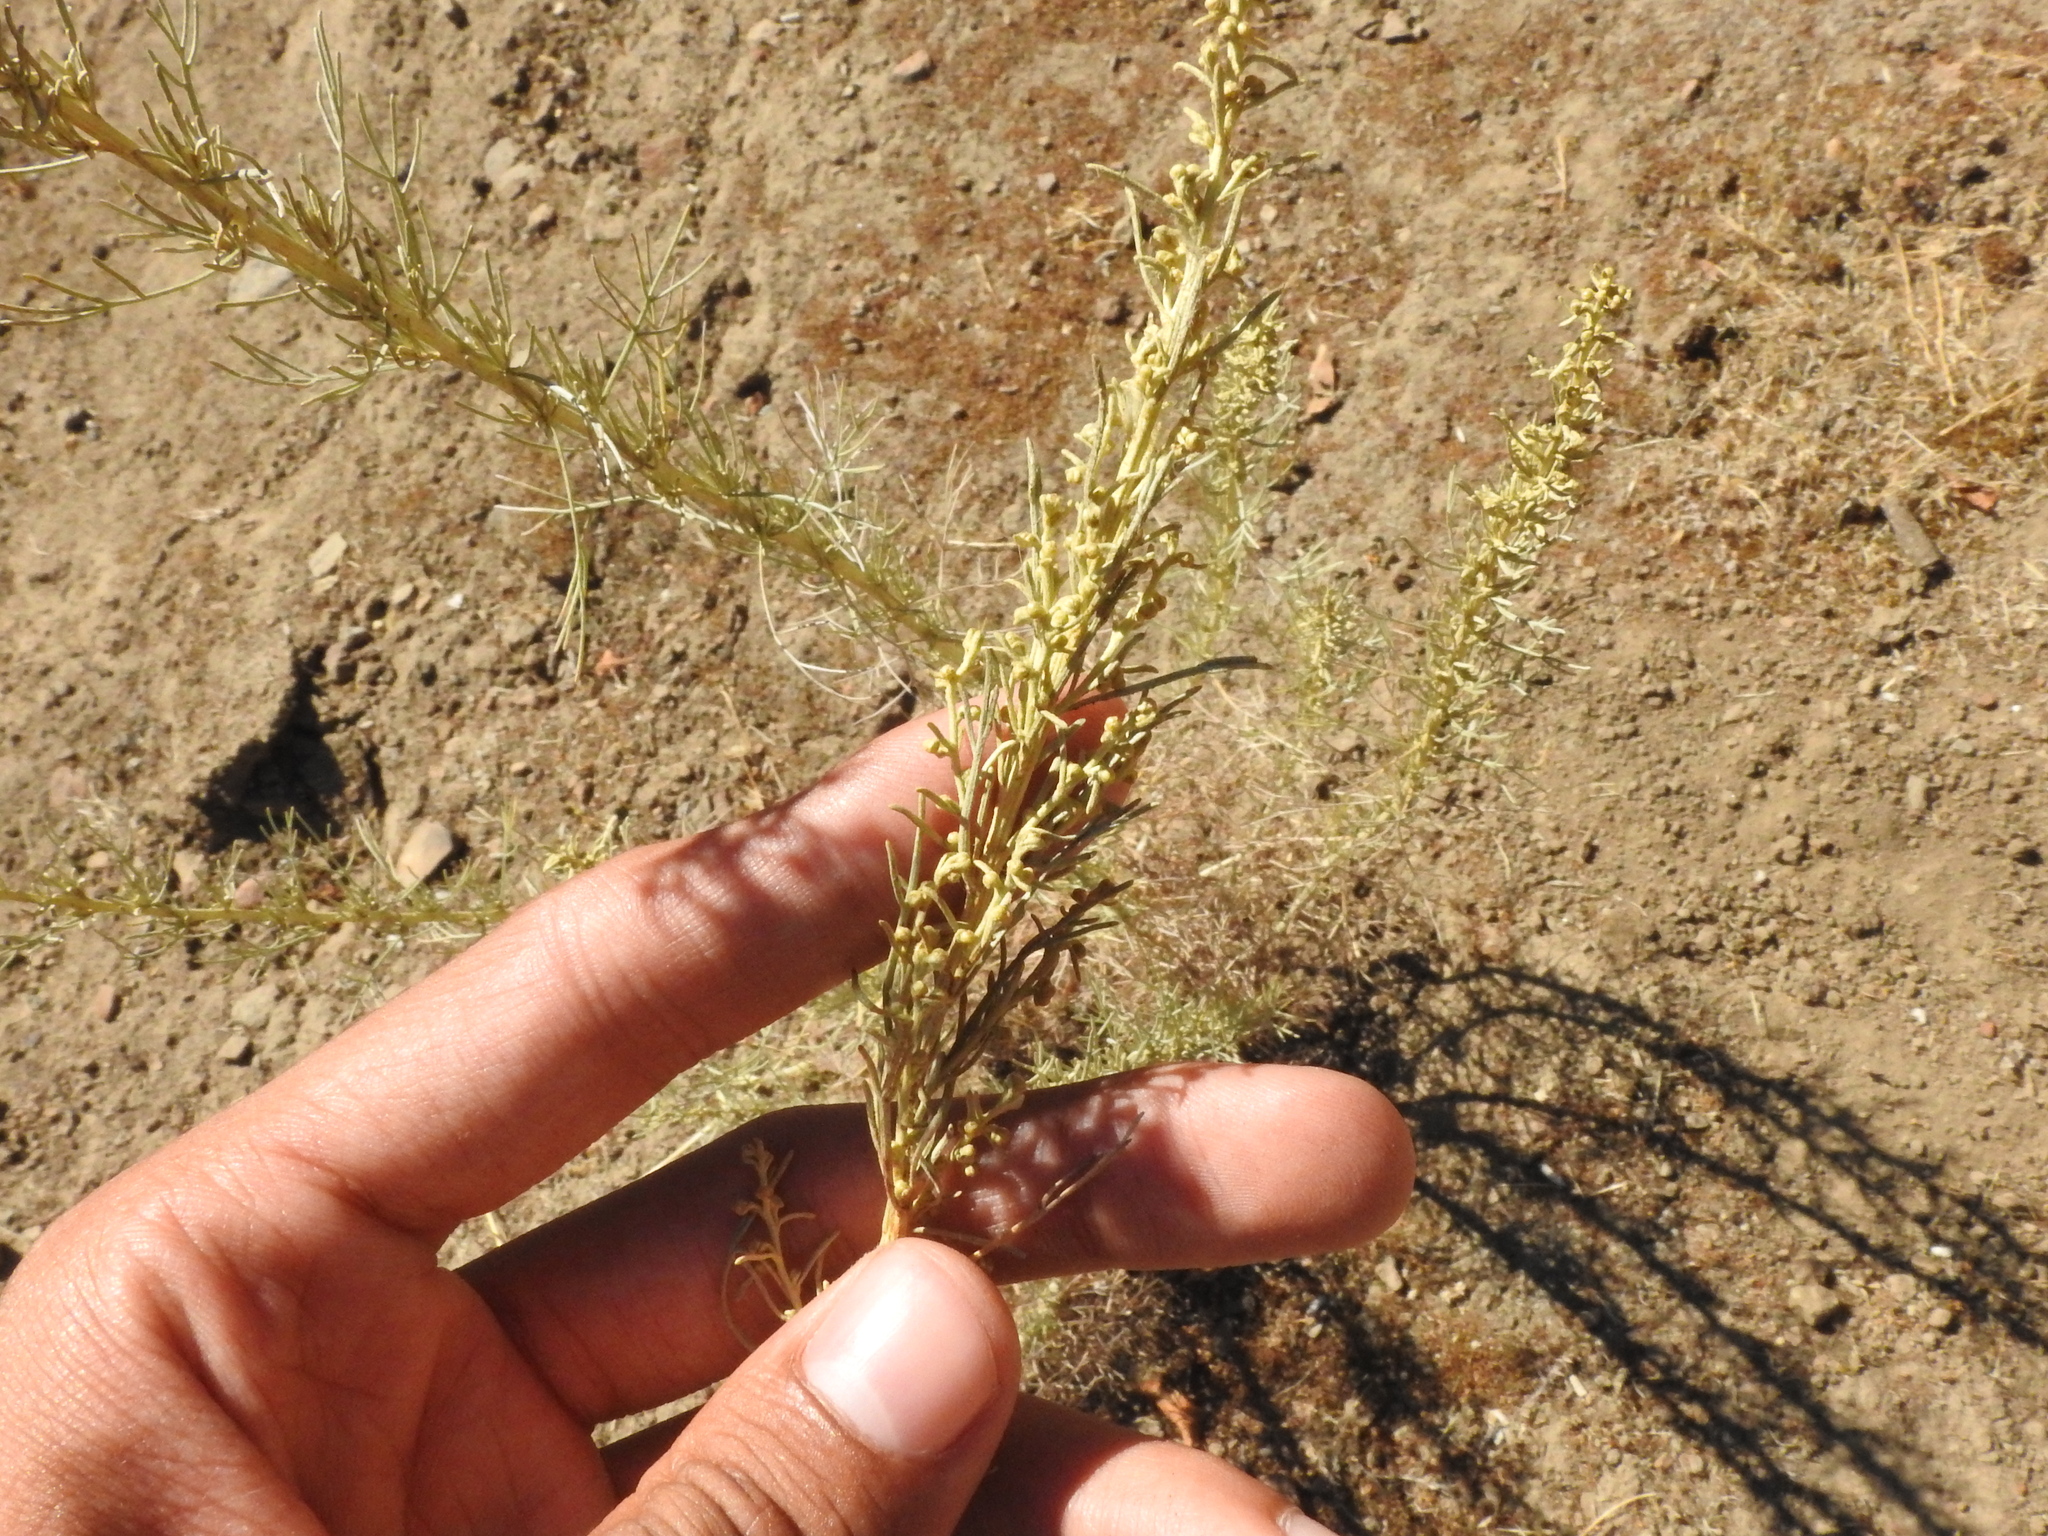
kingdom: Plantae
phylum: Tracheophyta
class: Magnoliopsida
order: Asterales
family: Asteraceae
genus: Artemisia
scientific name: Artemisia californica
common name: California sagebrush
